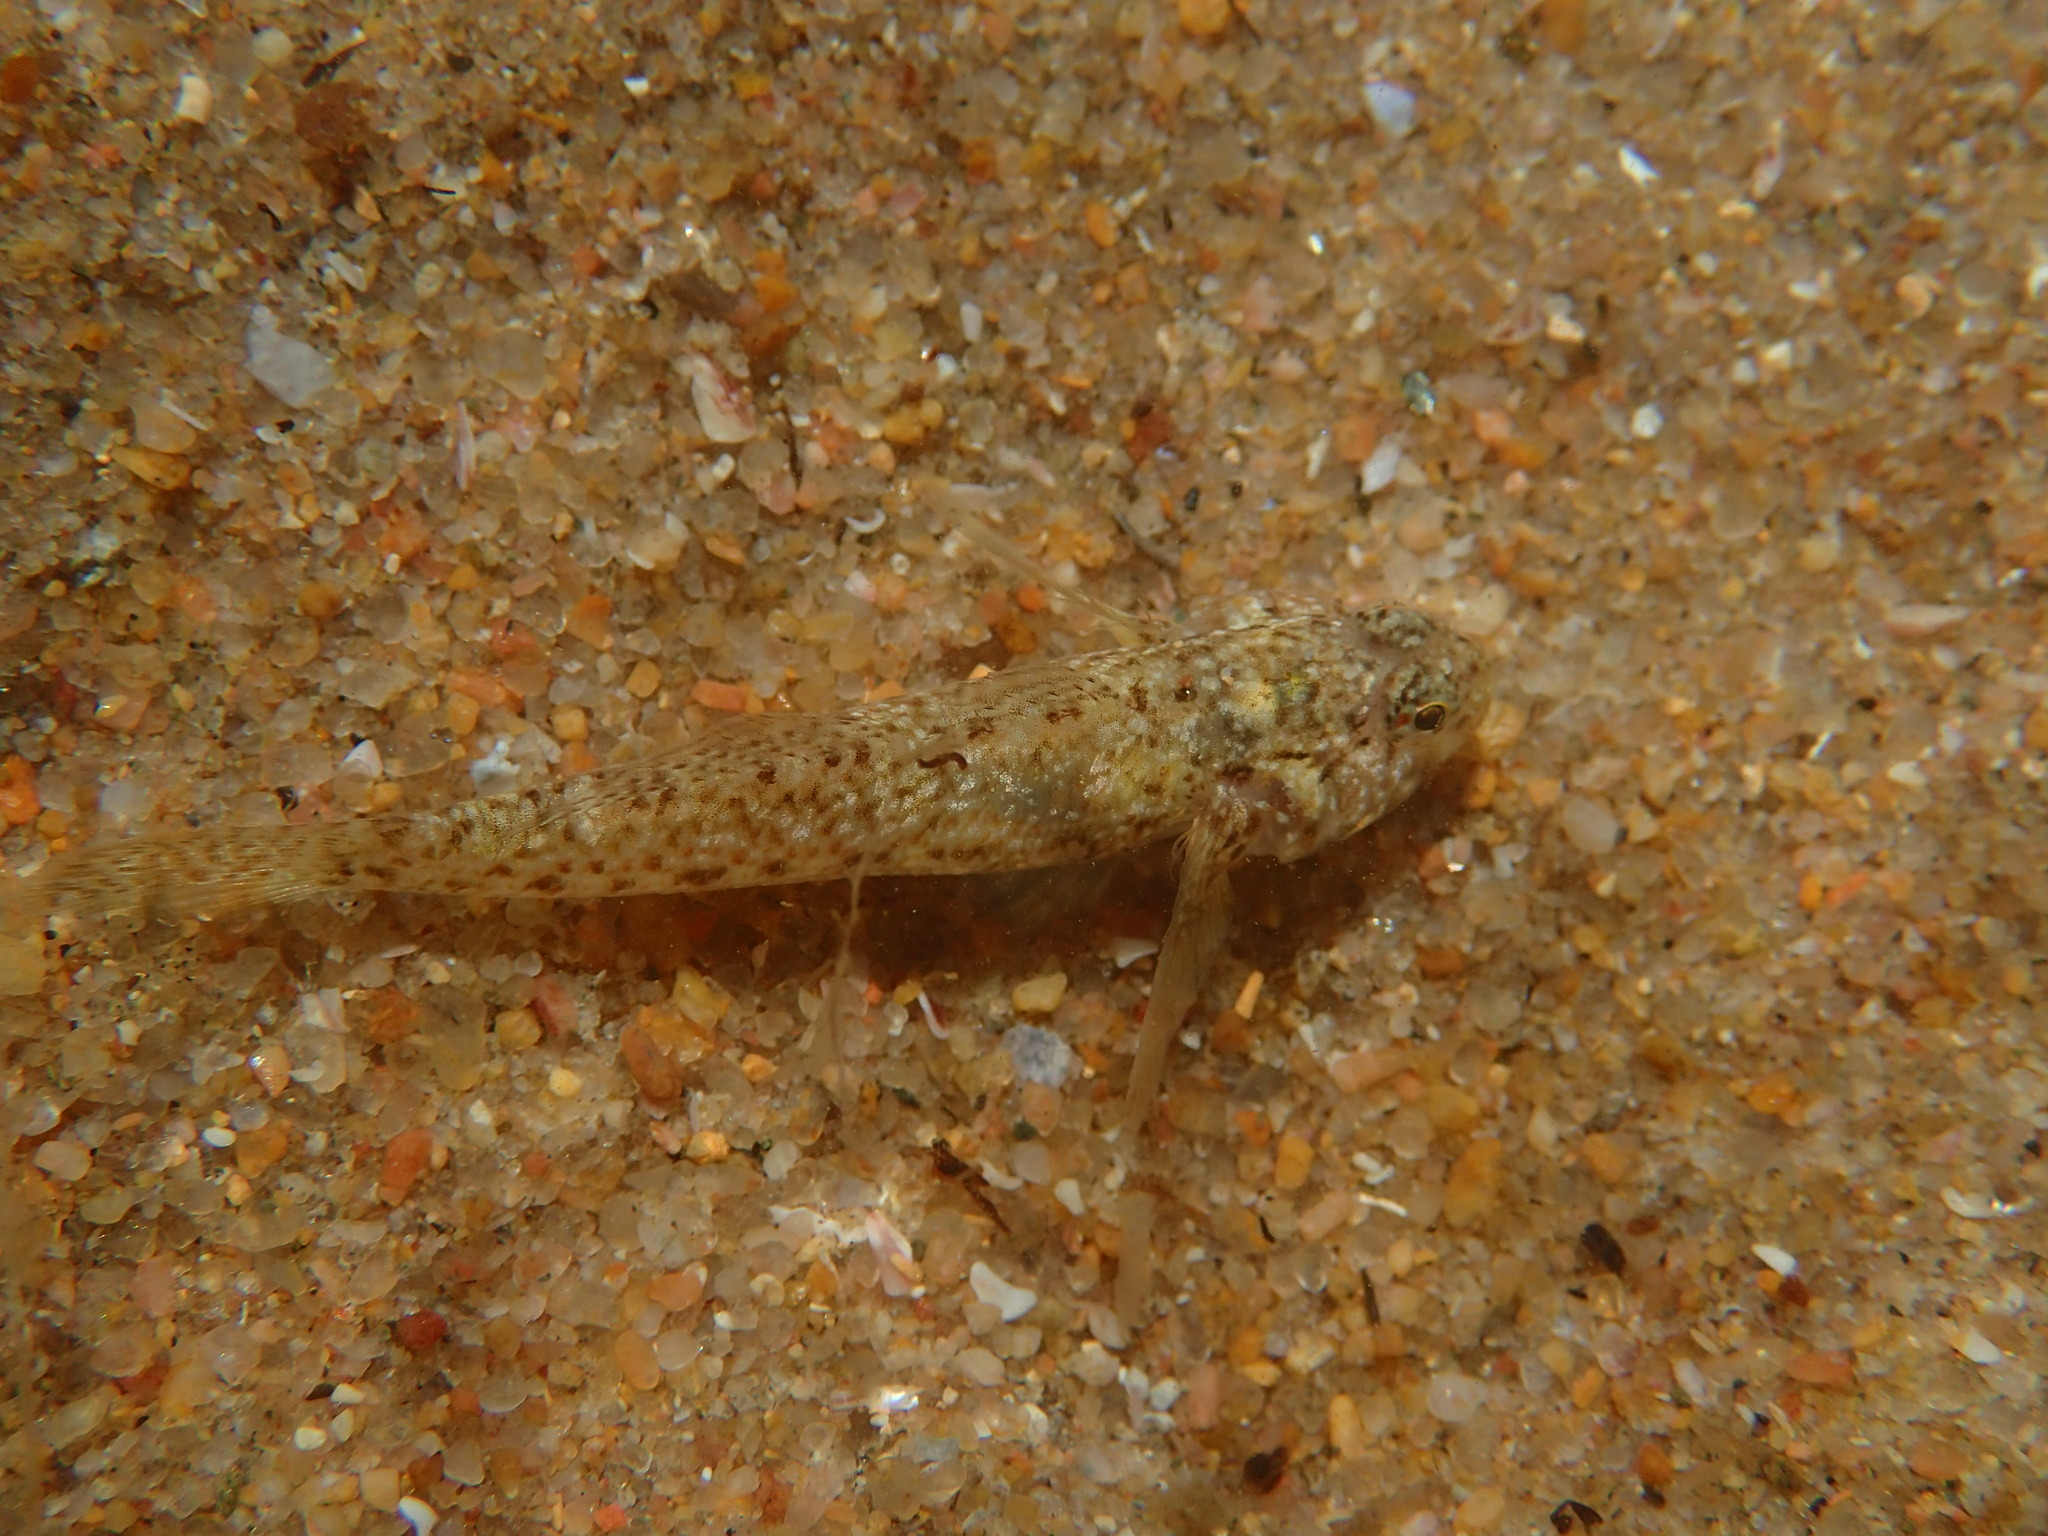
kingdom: Animalia
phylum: Chordata
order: Perciformes
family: Gobiidae
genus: Bathygobius
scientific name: Bathygobius cocosensis
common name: Cocos frillgoby
